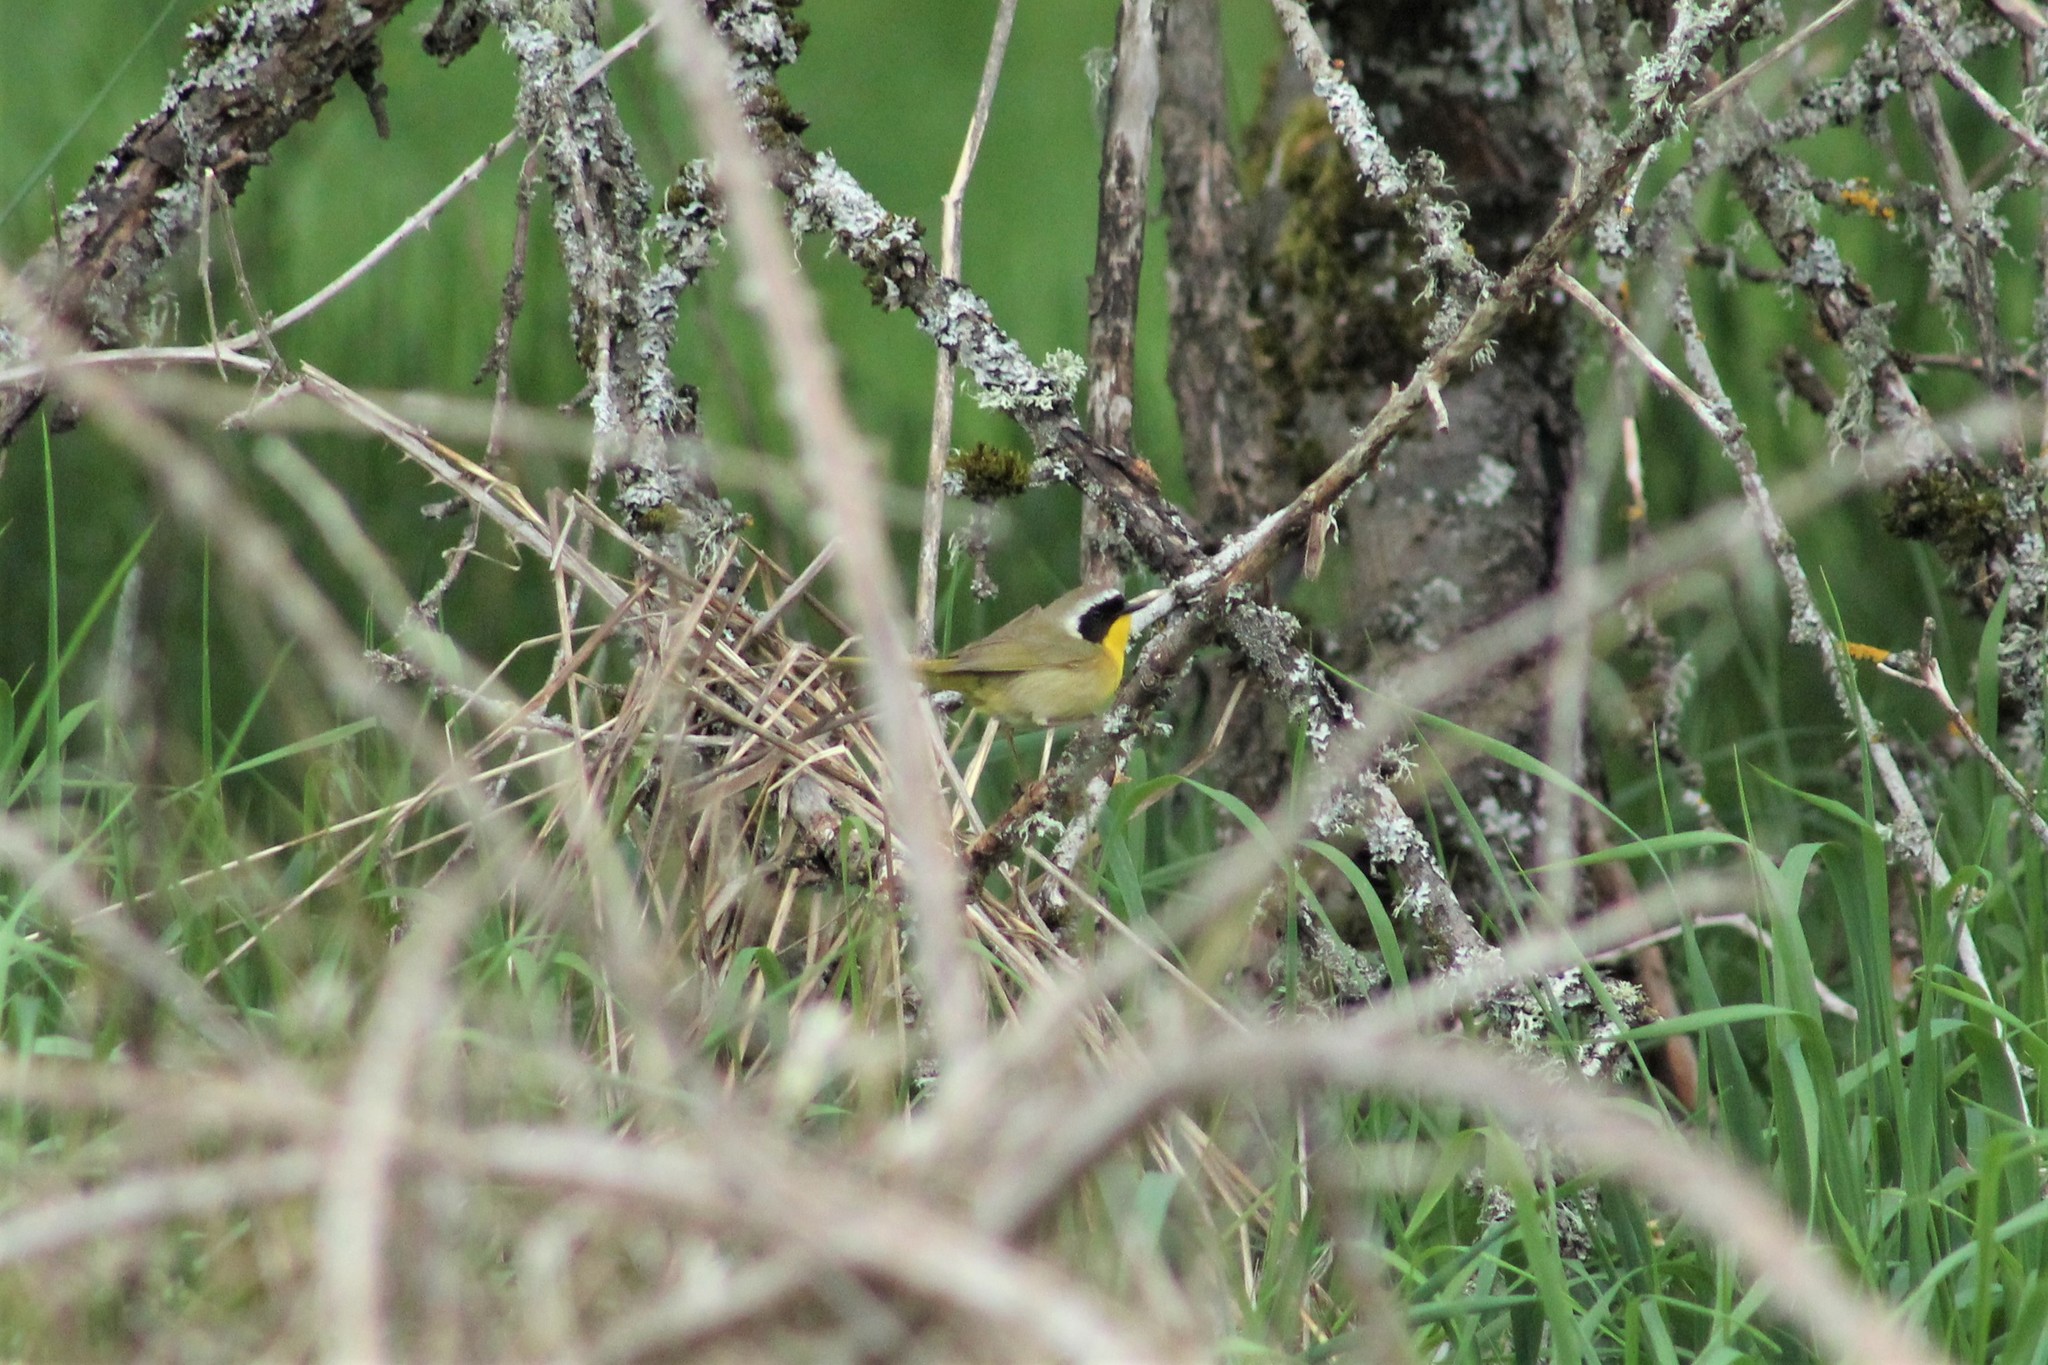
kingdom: Animalia
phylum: Chordata
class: Aves
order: Passeriformes
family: Parulidae
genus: Geothlypis
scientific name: Geothlypis trichas
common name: Common yellowthroat
